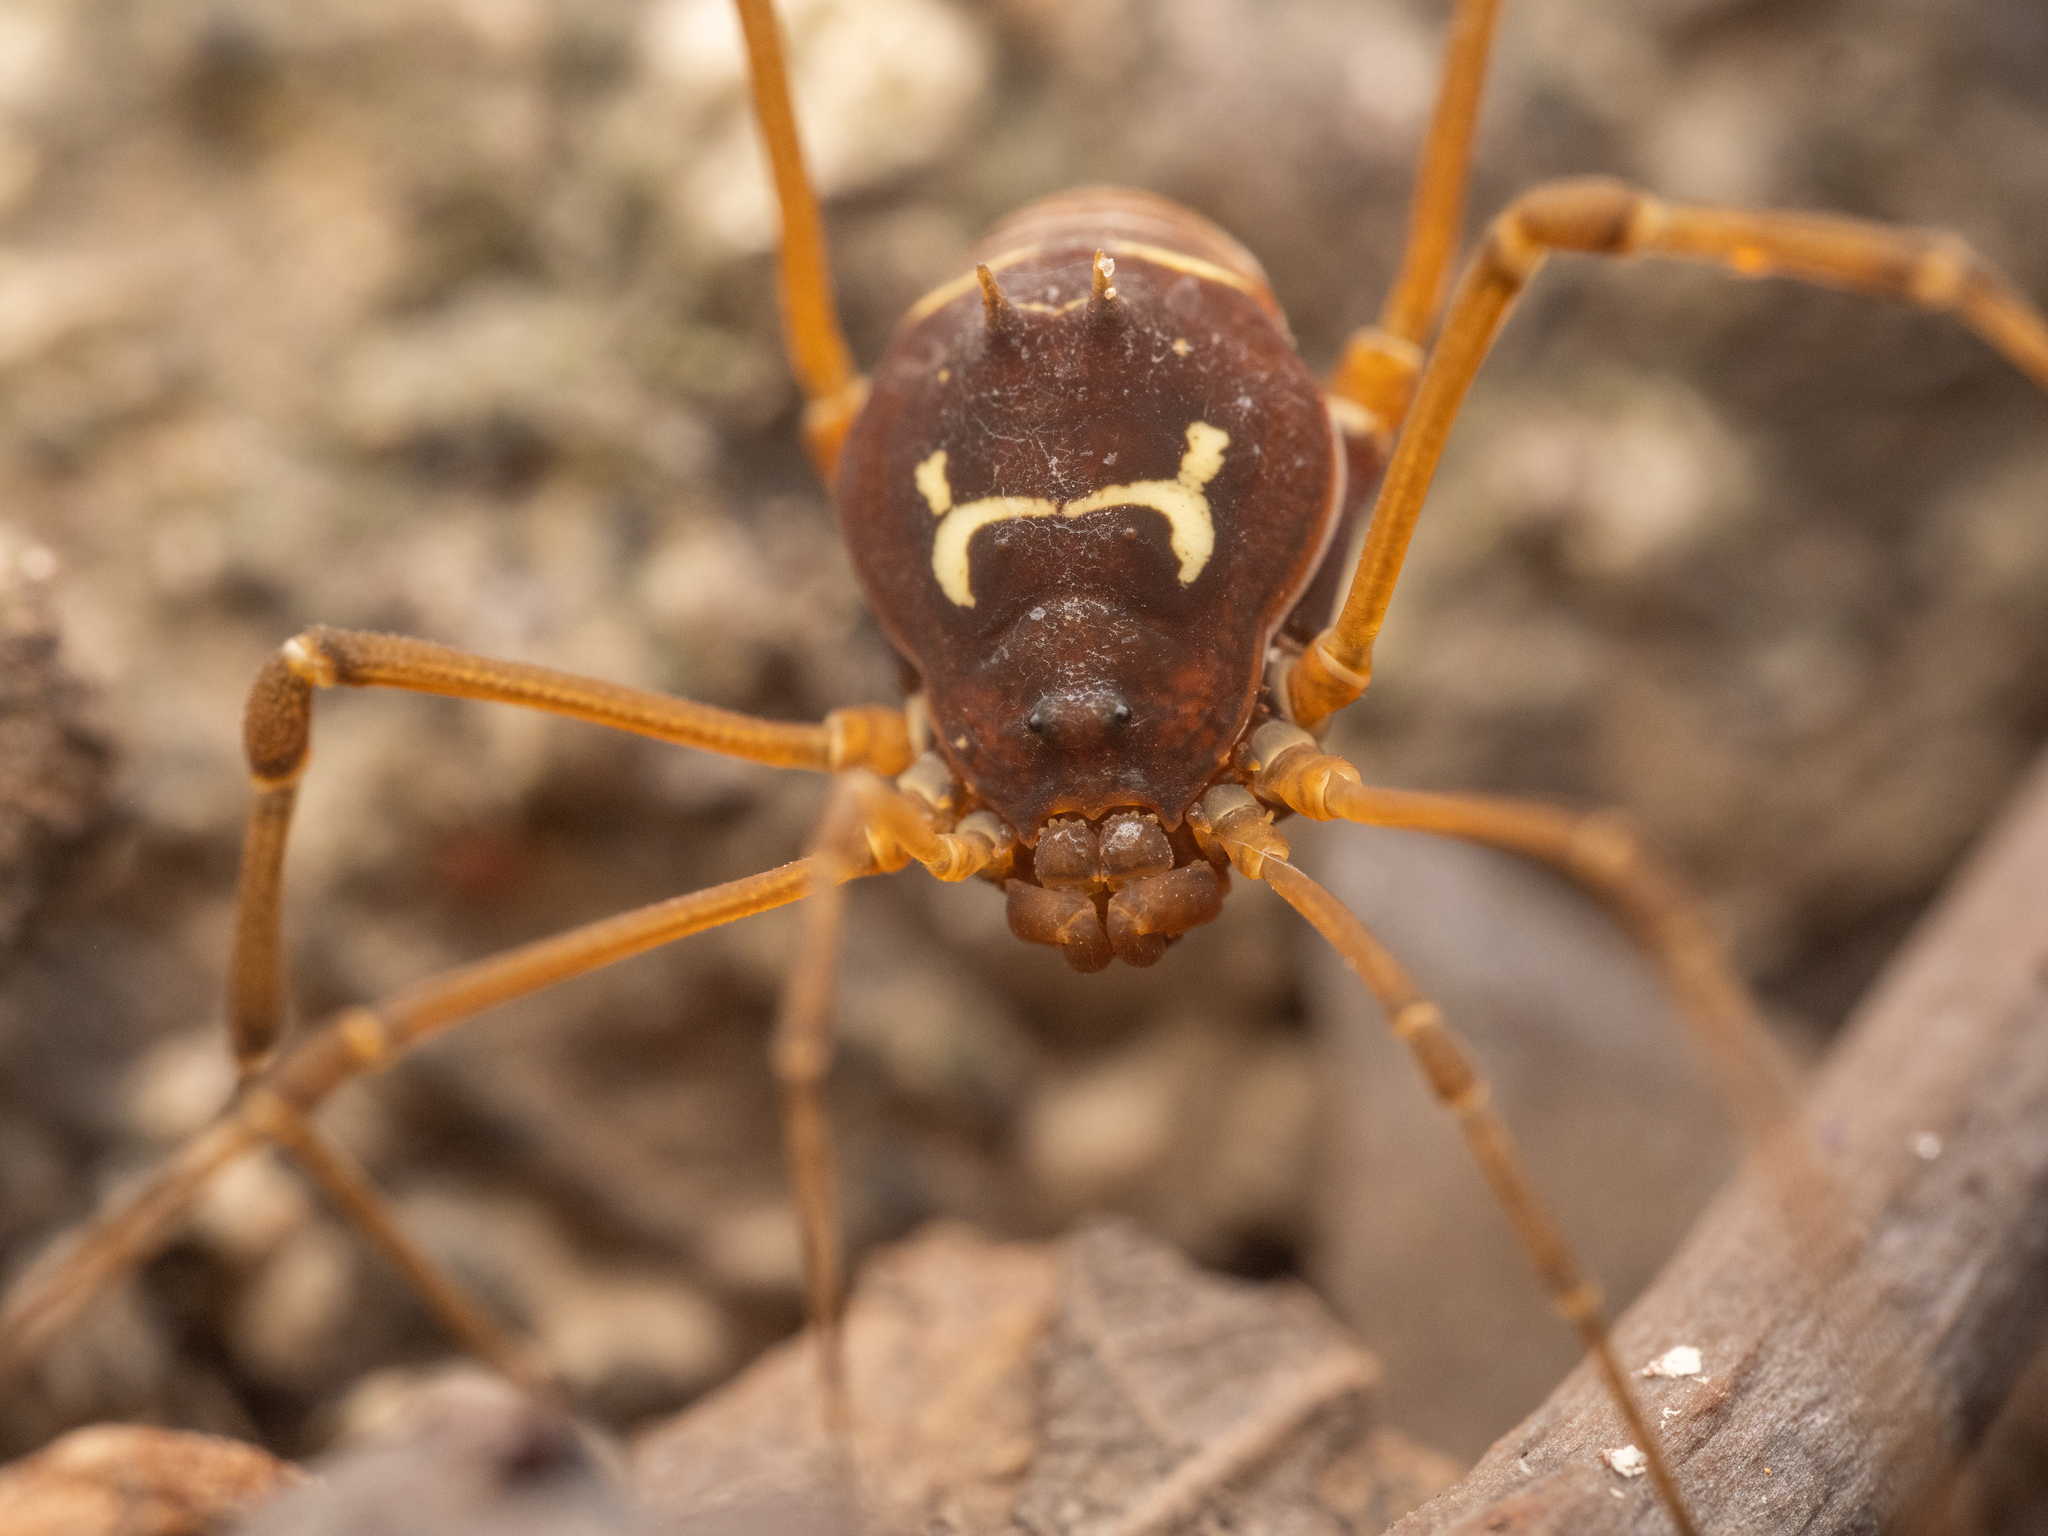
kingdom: Animalia
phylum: Arthropoda
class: Arachnida
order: Opiliones
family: Cosmetidae
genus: Taito
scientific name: Taito honda
